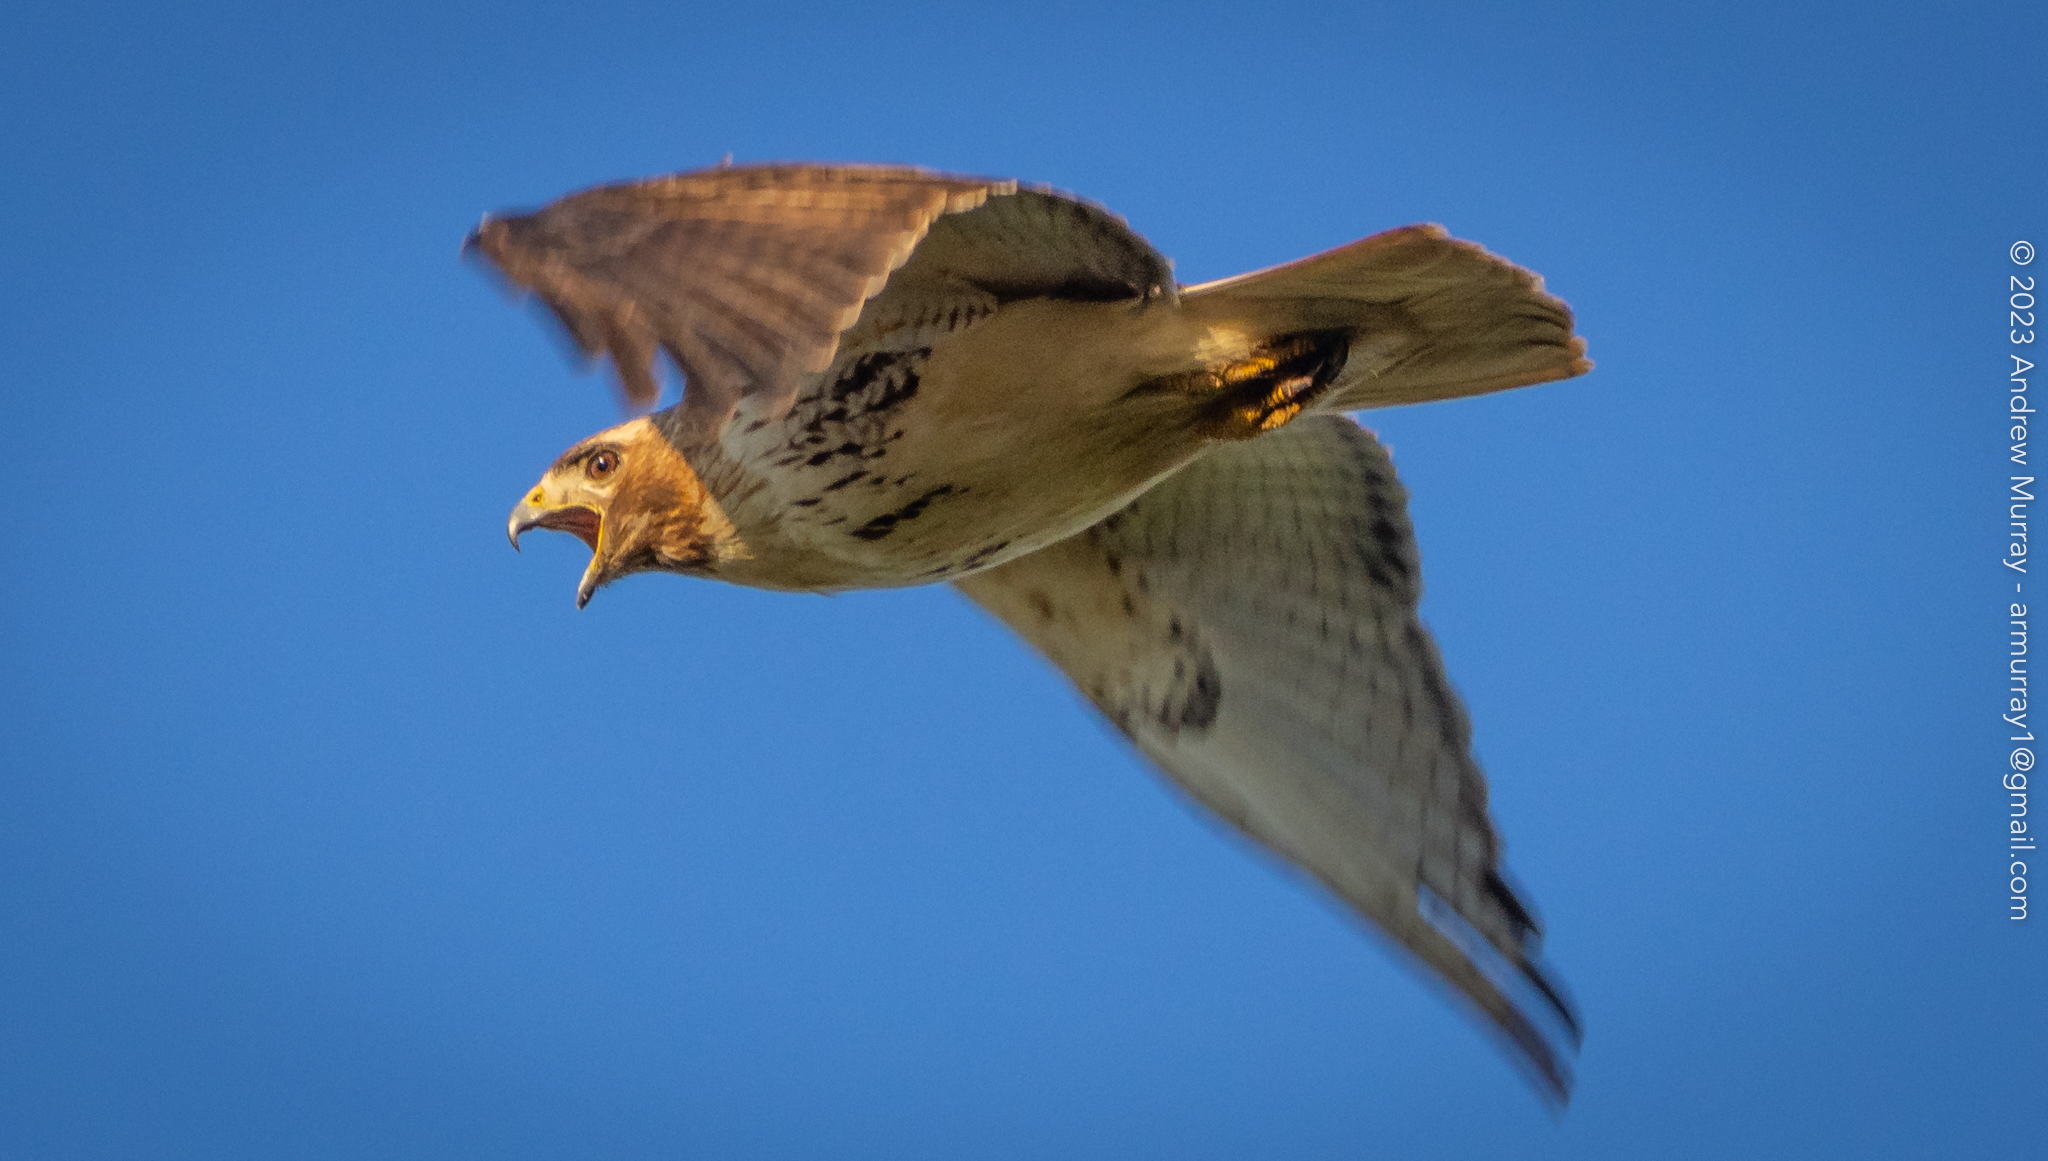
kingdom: Animalia
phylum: Chordata
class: Aves
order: Accipitriformes
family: Accipitridae
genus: Buteo
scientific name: Buteo jamaicensis
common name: Red-tailed hawk
